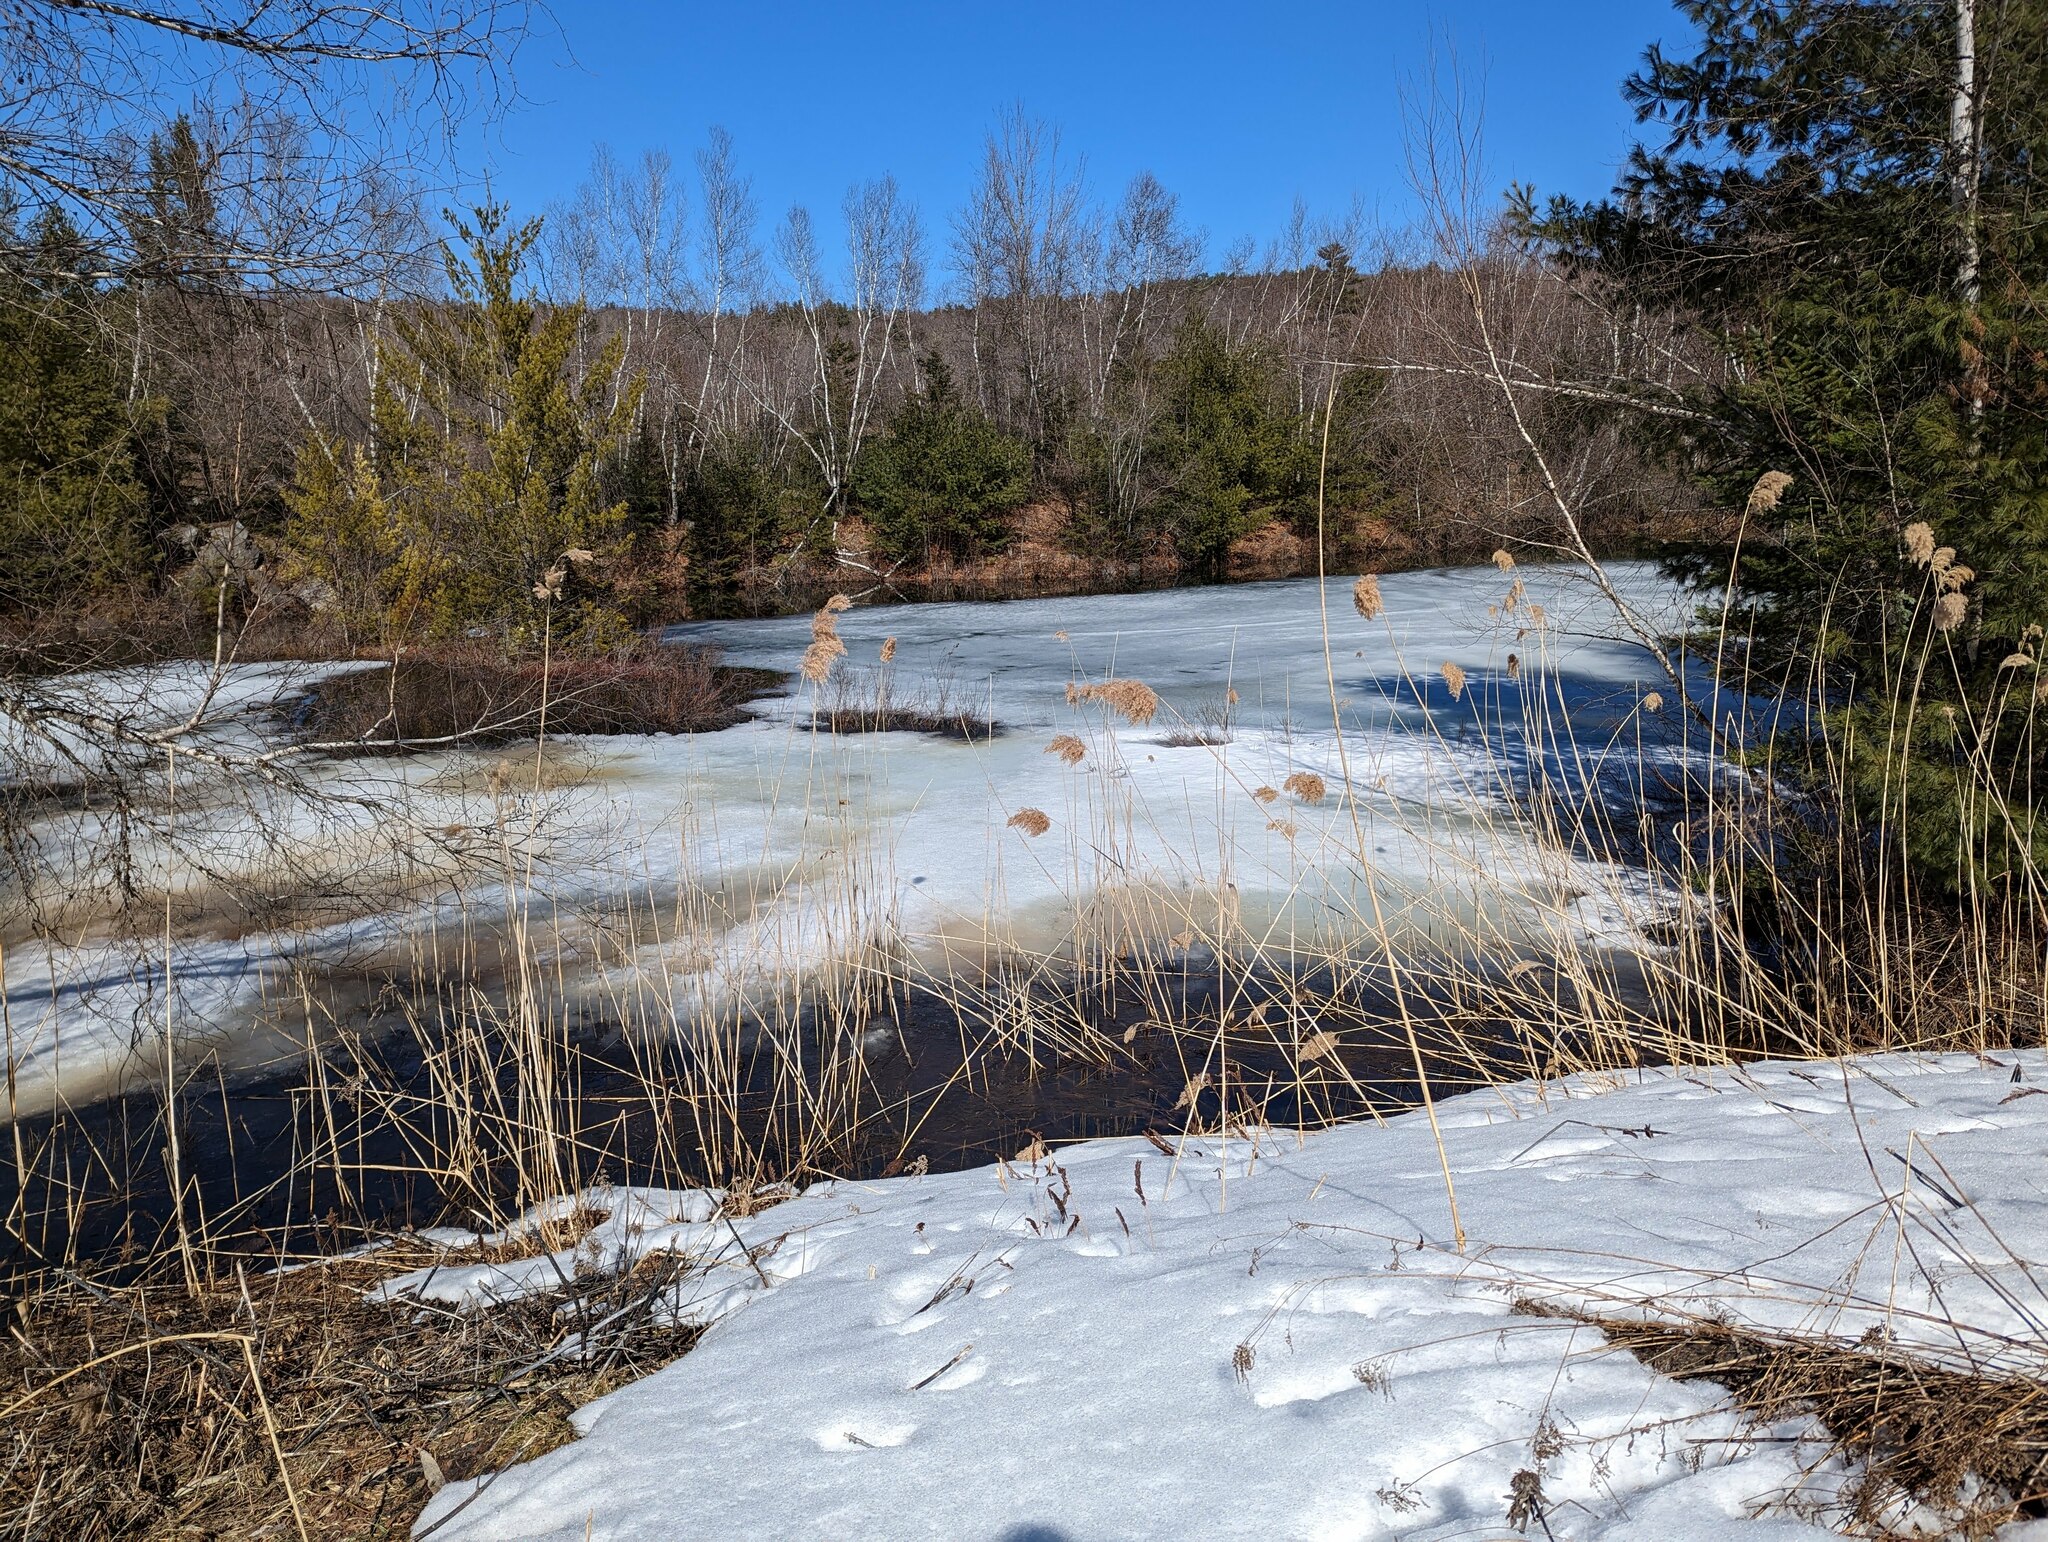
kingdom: Plantae
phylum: Tracheophyta
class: Liliopsida
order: Poales
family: Poaceae
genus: Phragmites
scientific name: Phragmites australis
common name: Common reed
